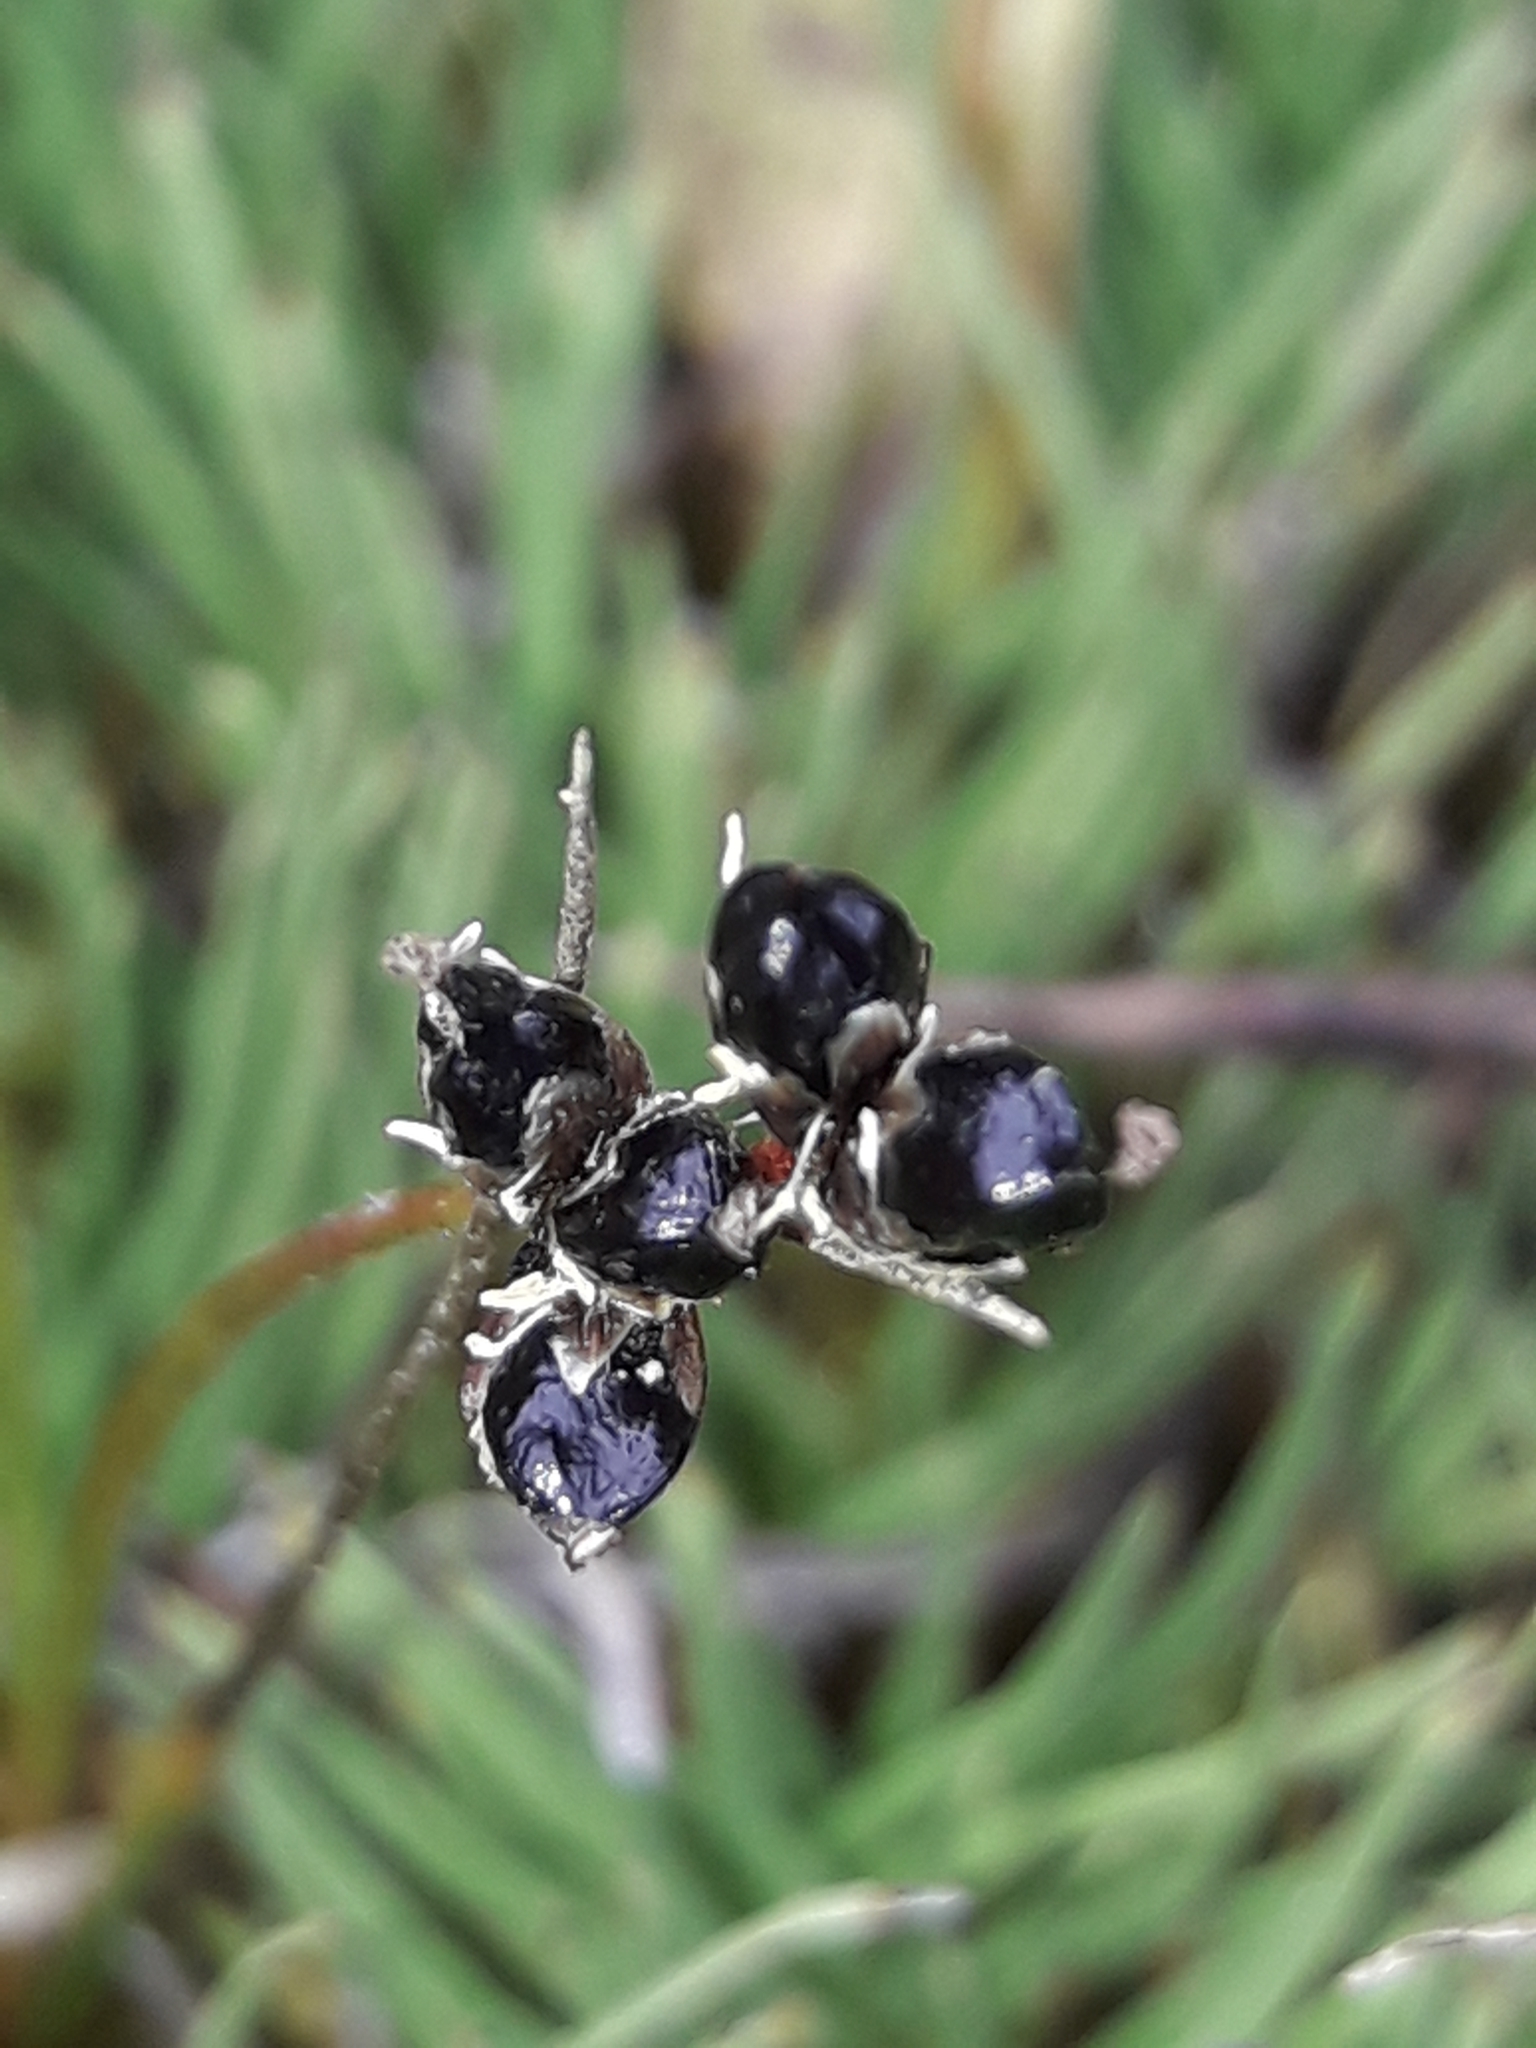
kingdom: Plantae
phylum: Tracheophyta
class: Liliopsida
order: Poales
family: Juncaceae
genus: Juncus
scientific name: Juncus novae-zelandiae
